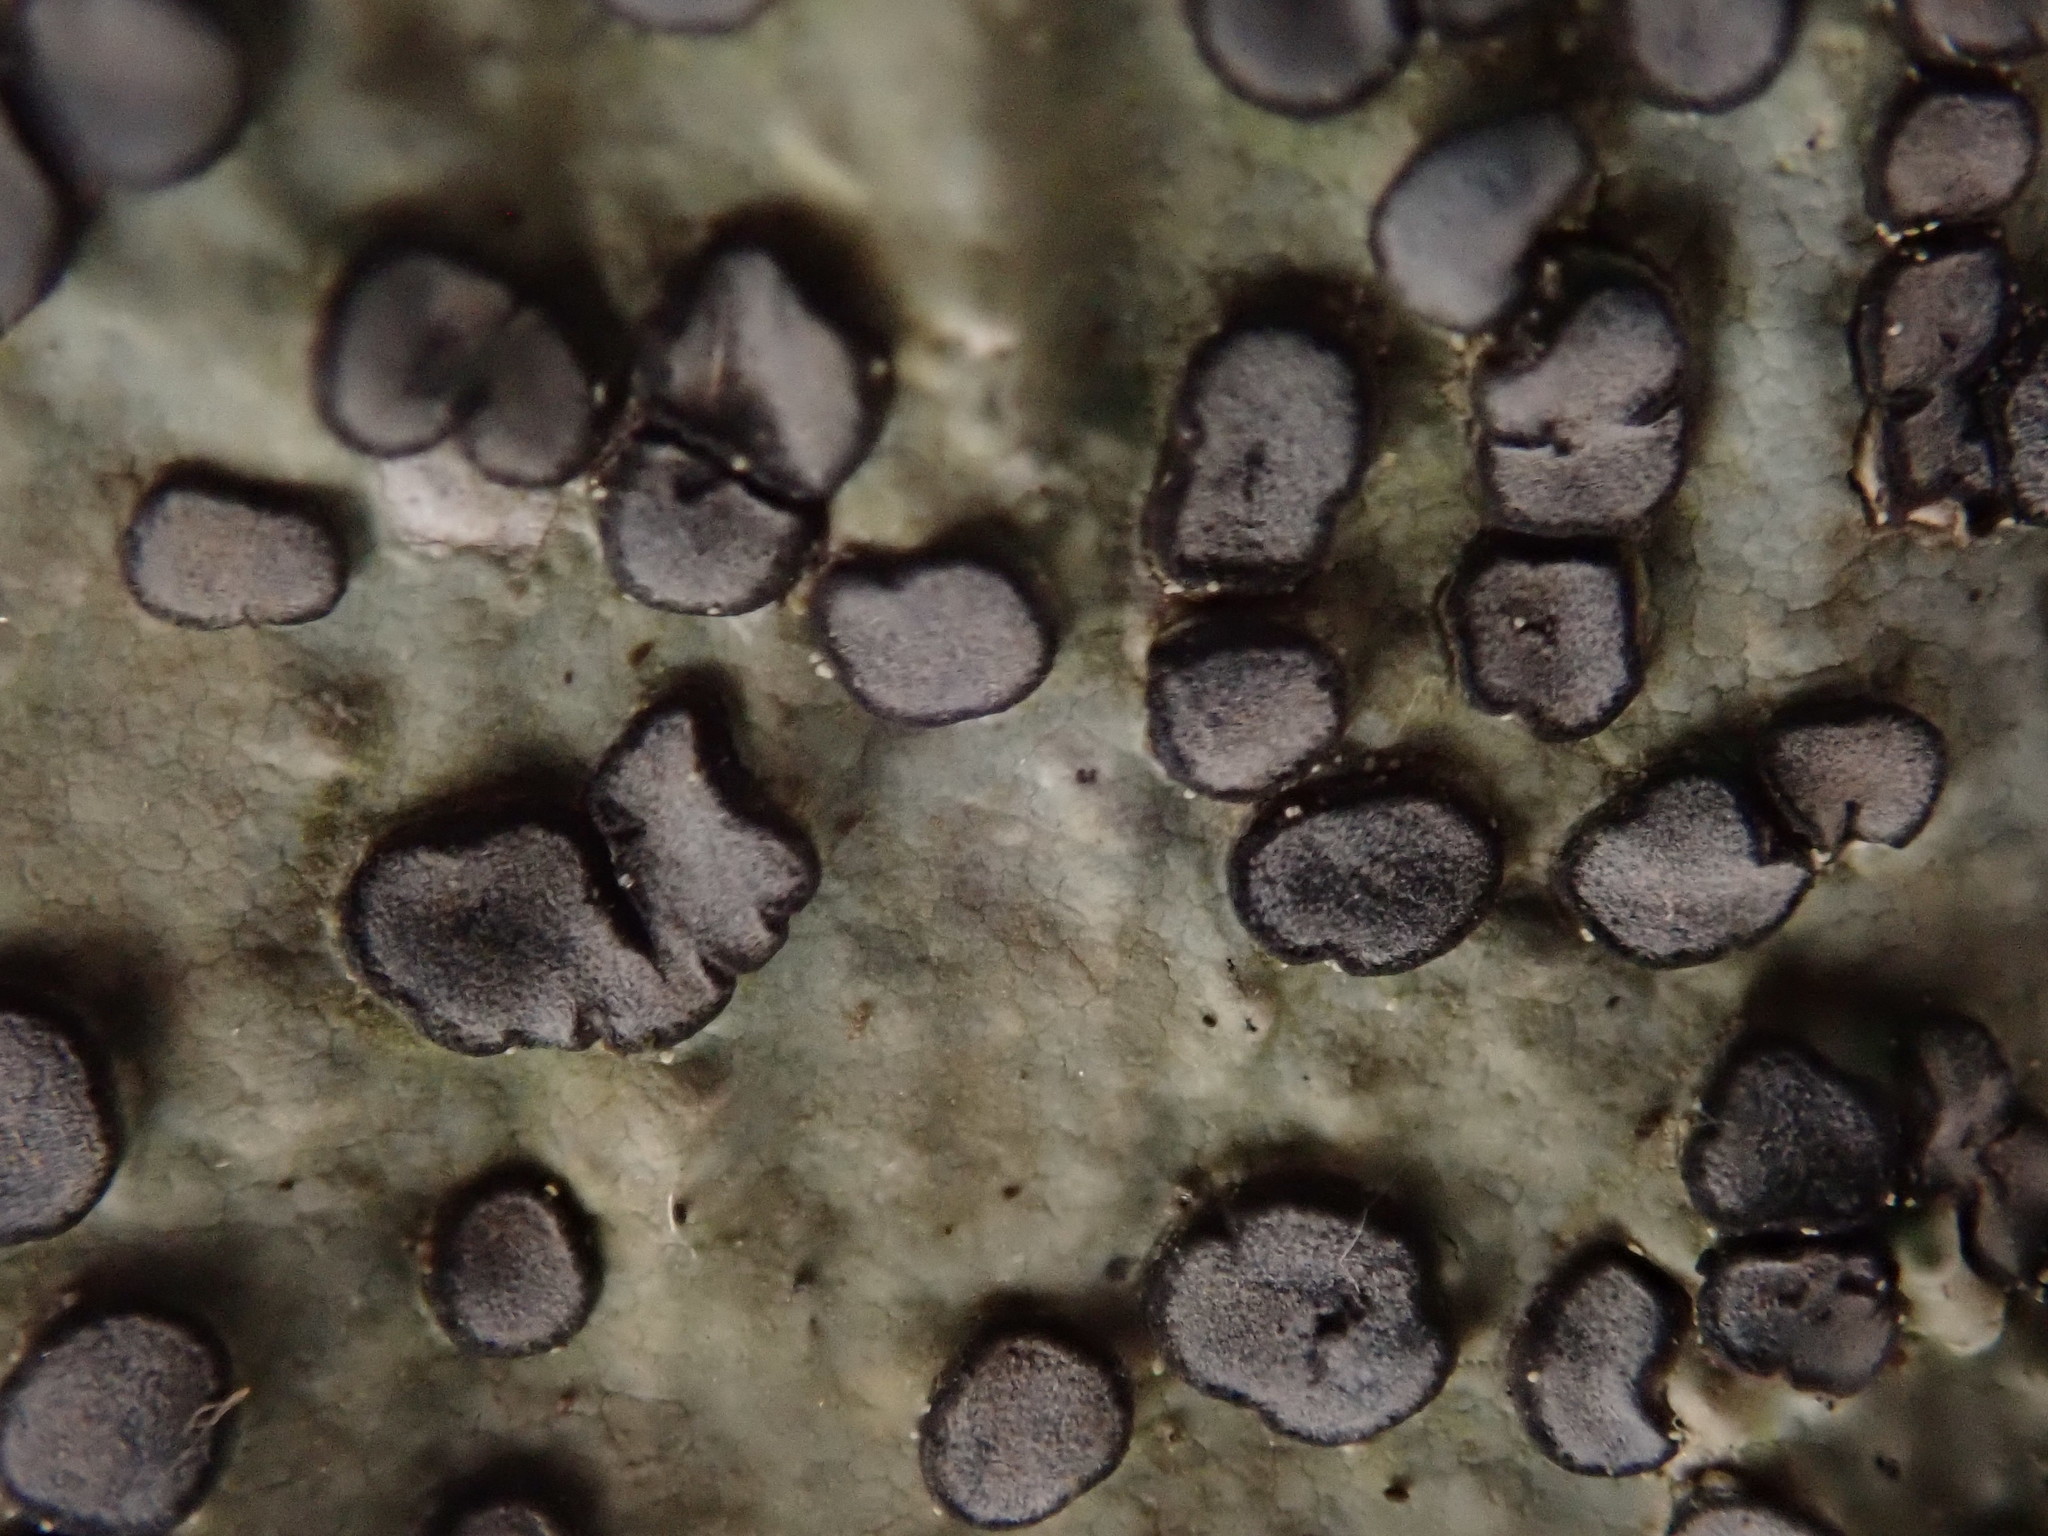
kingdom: Fungi
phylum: Ascomycota
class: Lecanoromycetes
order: Lecideales
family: Lecideaceae
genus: Porpidia
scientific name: Porpidia albocaerulescens
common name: Smokey-eyed boulder lichen
